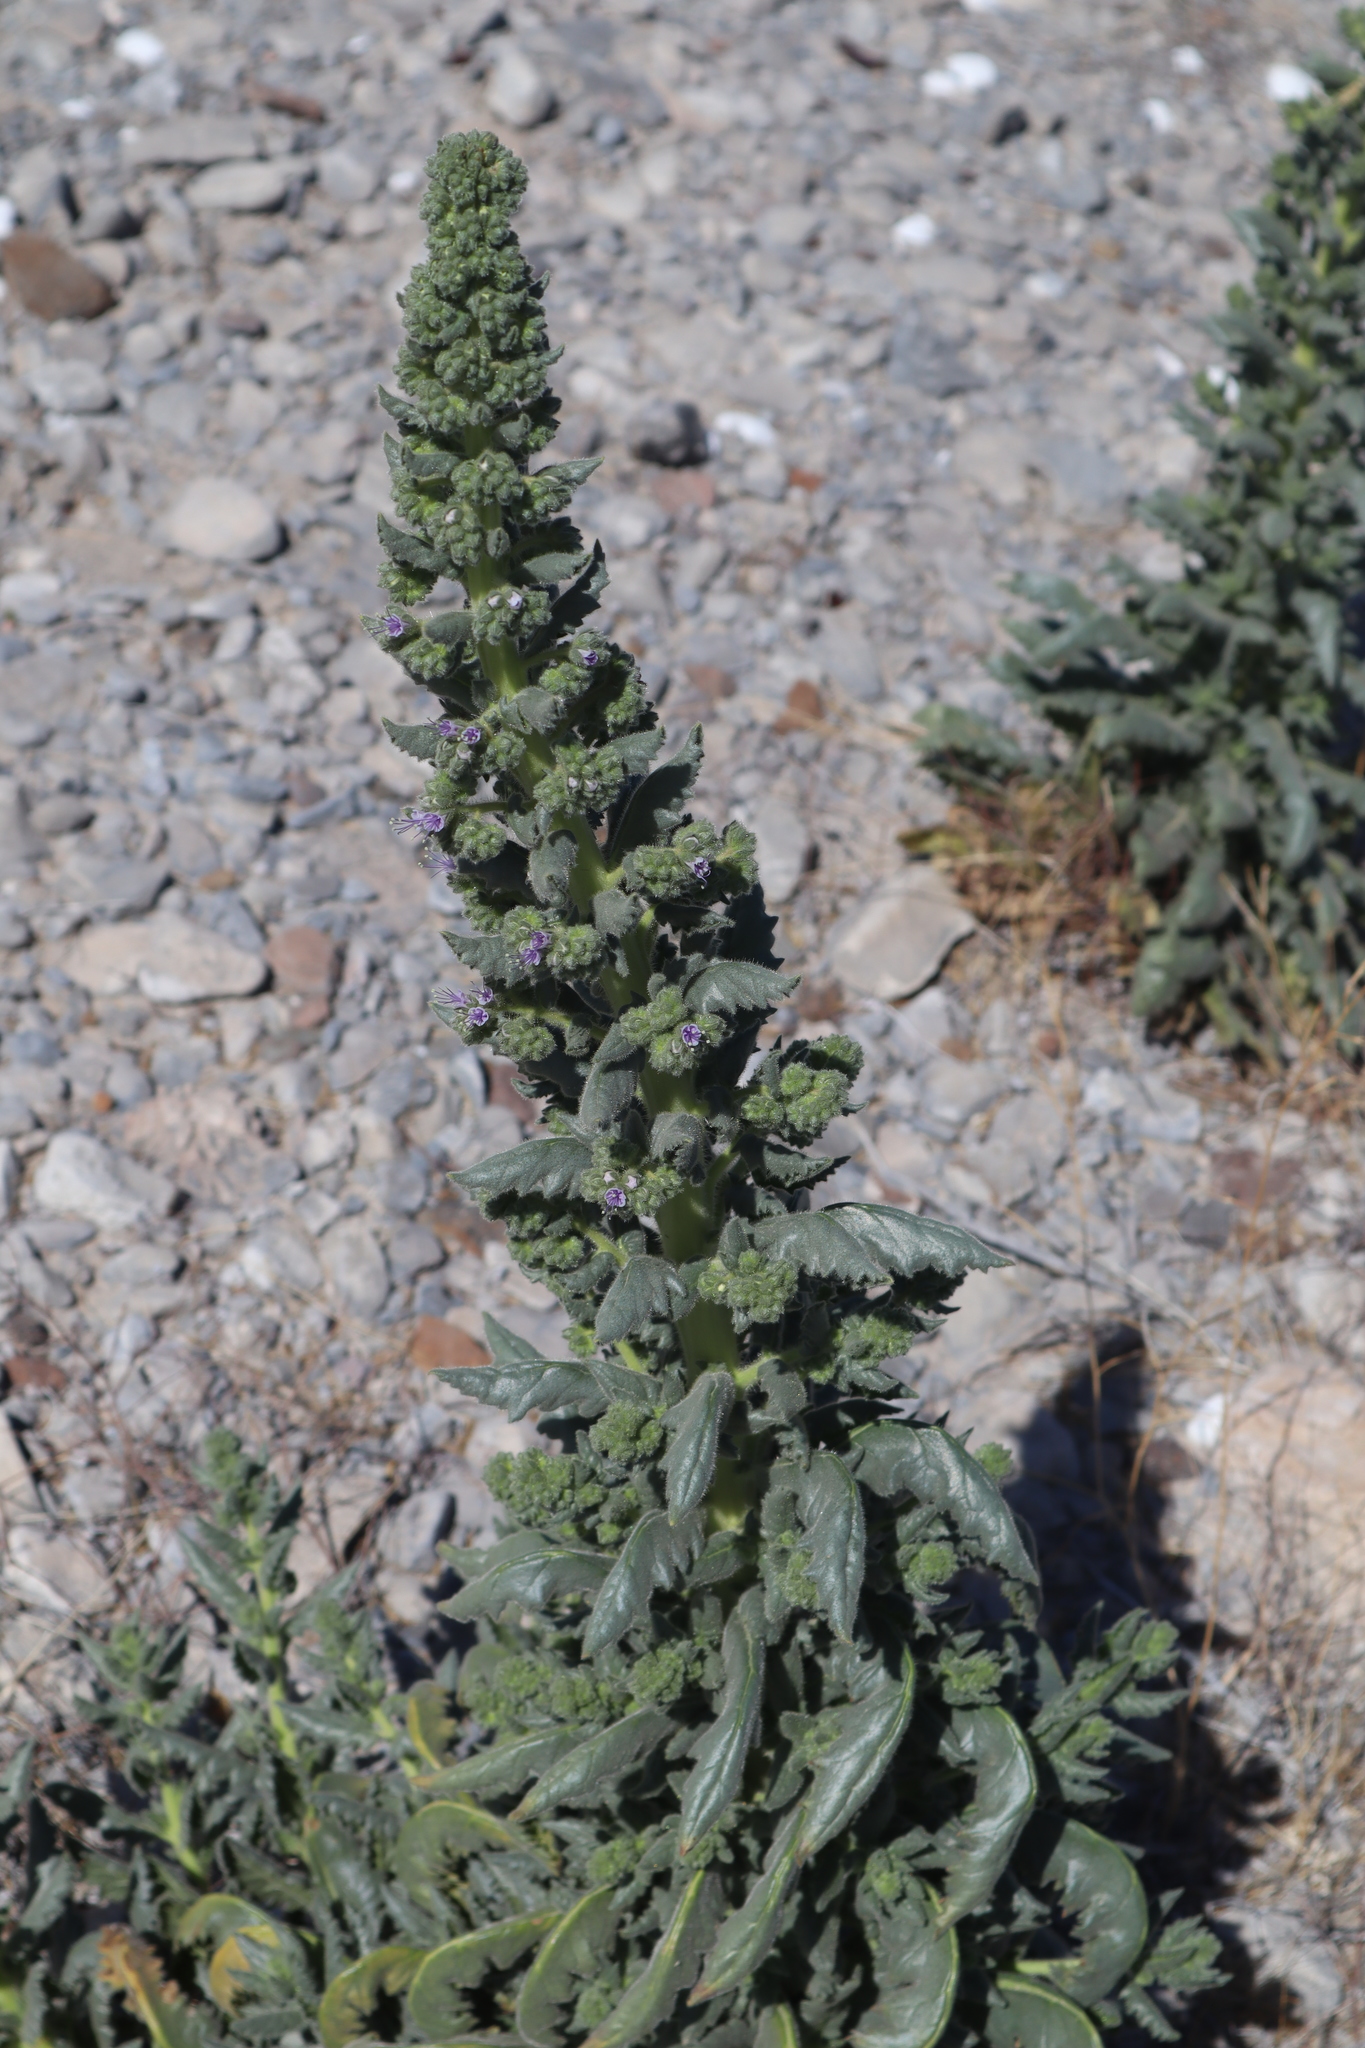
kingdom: Plantae
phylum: Tracheophyta
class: Magnoliopsida
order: Boraginales
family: Hydrophyllaceae
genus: Phacelia
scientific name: Phacelia palmeri
